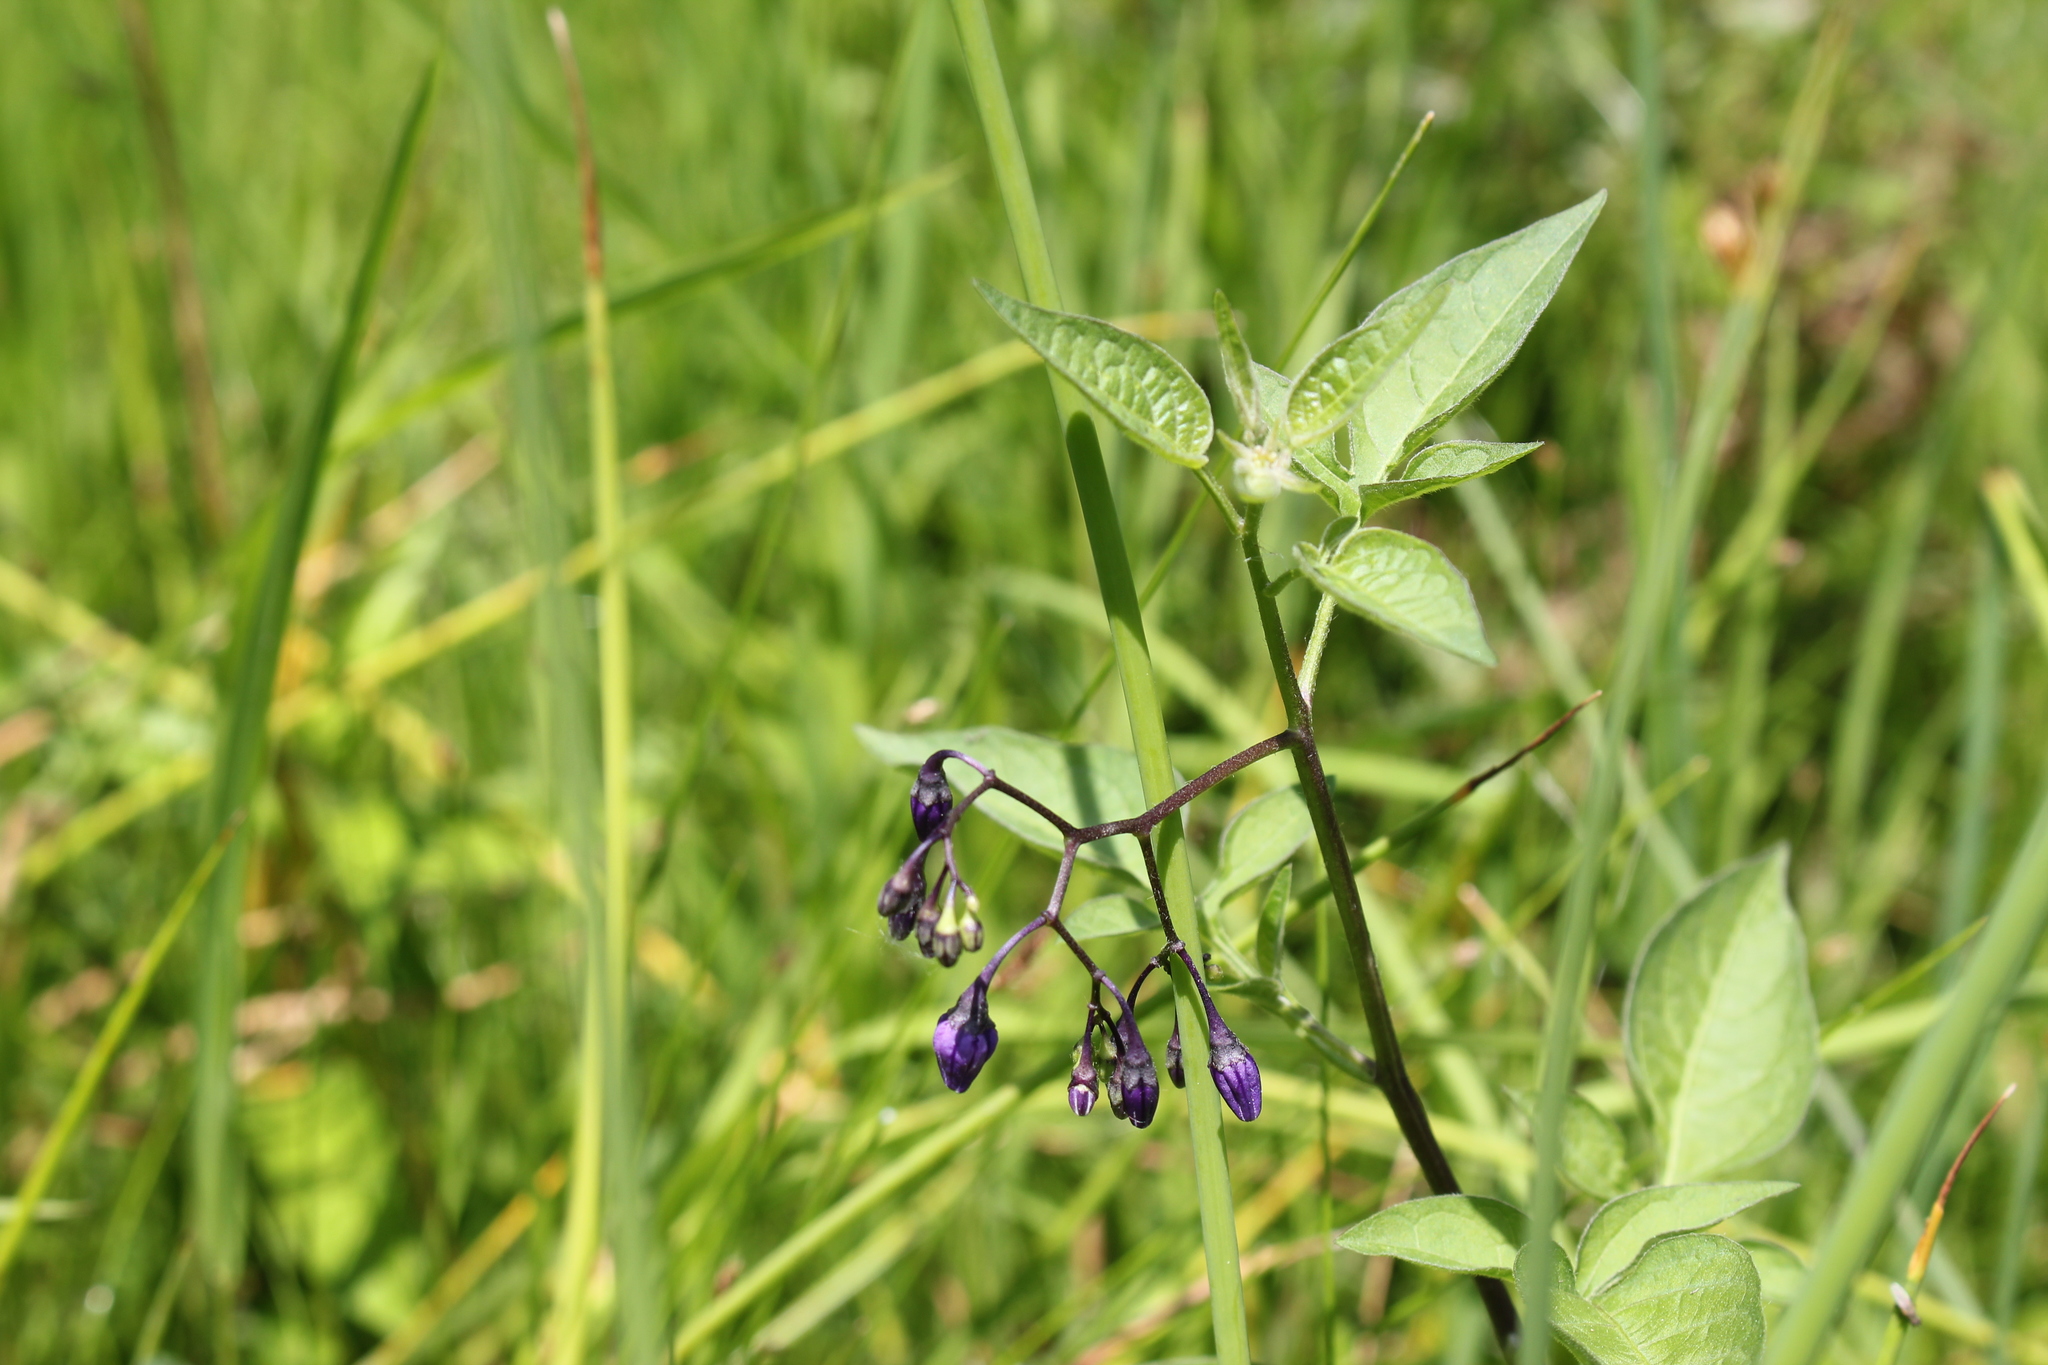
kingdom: Plantae
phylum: Tracheophyta
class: Magnoliopsida
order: Solanales
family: Solanaceae
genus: Solanum
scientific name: Solanum dulcamara
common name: Climbing nightshade
